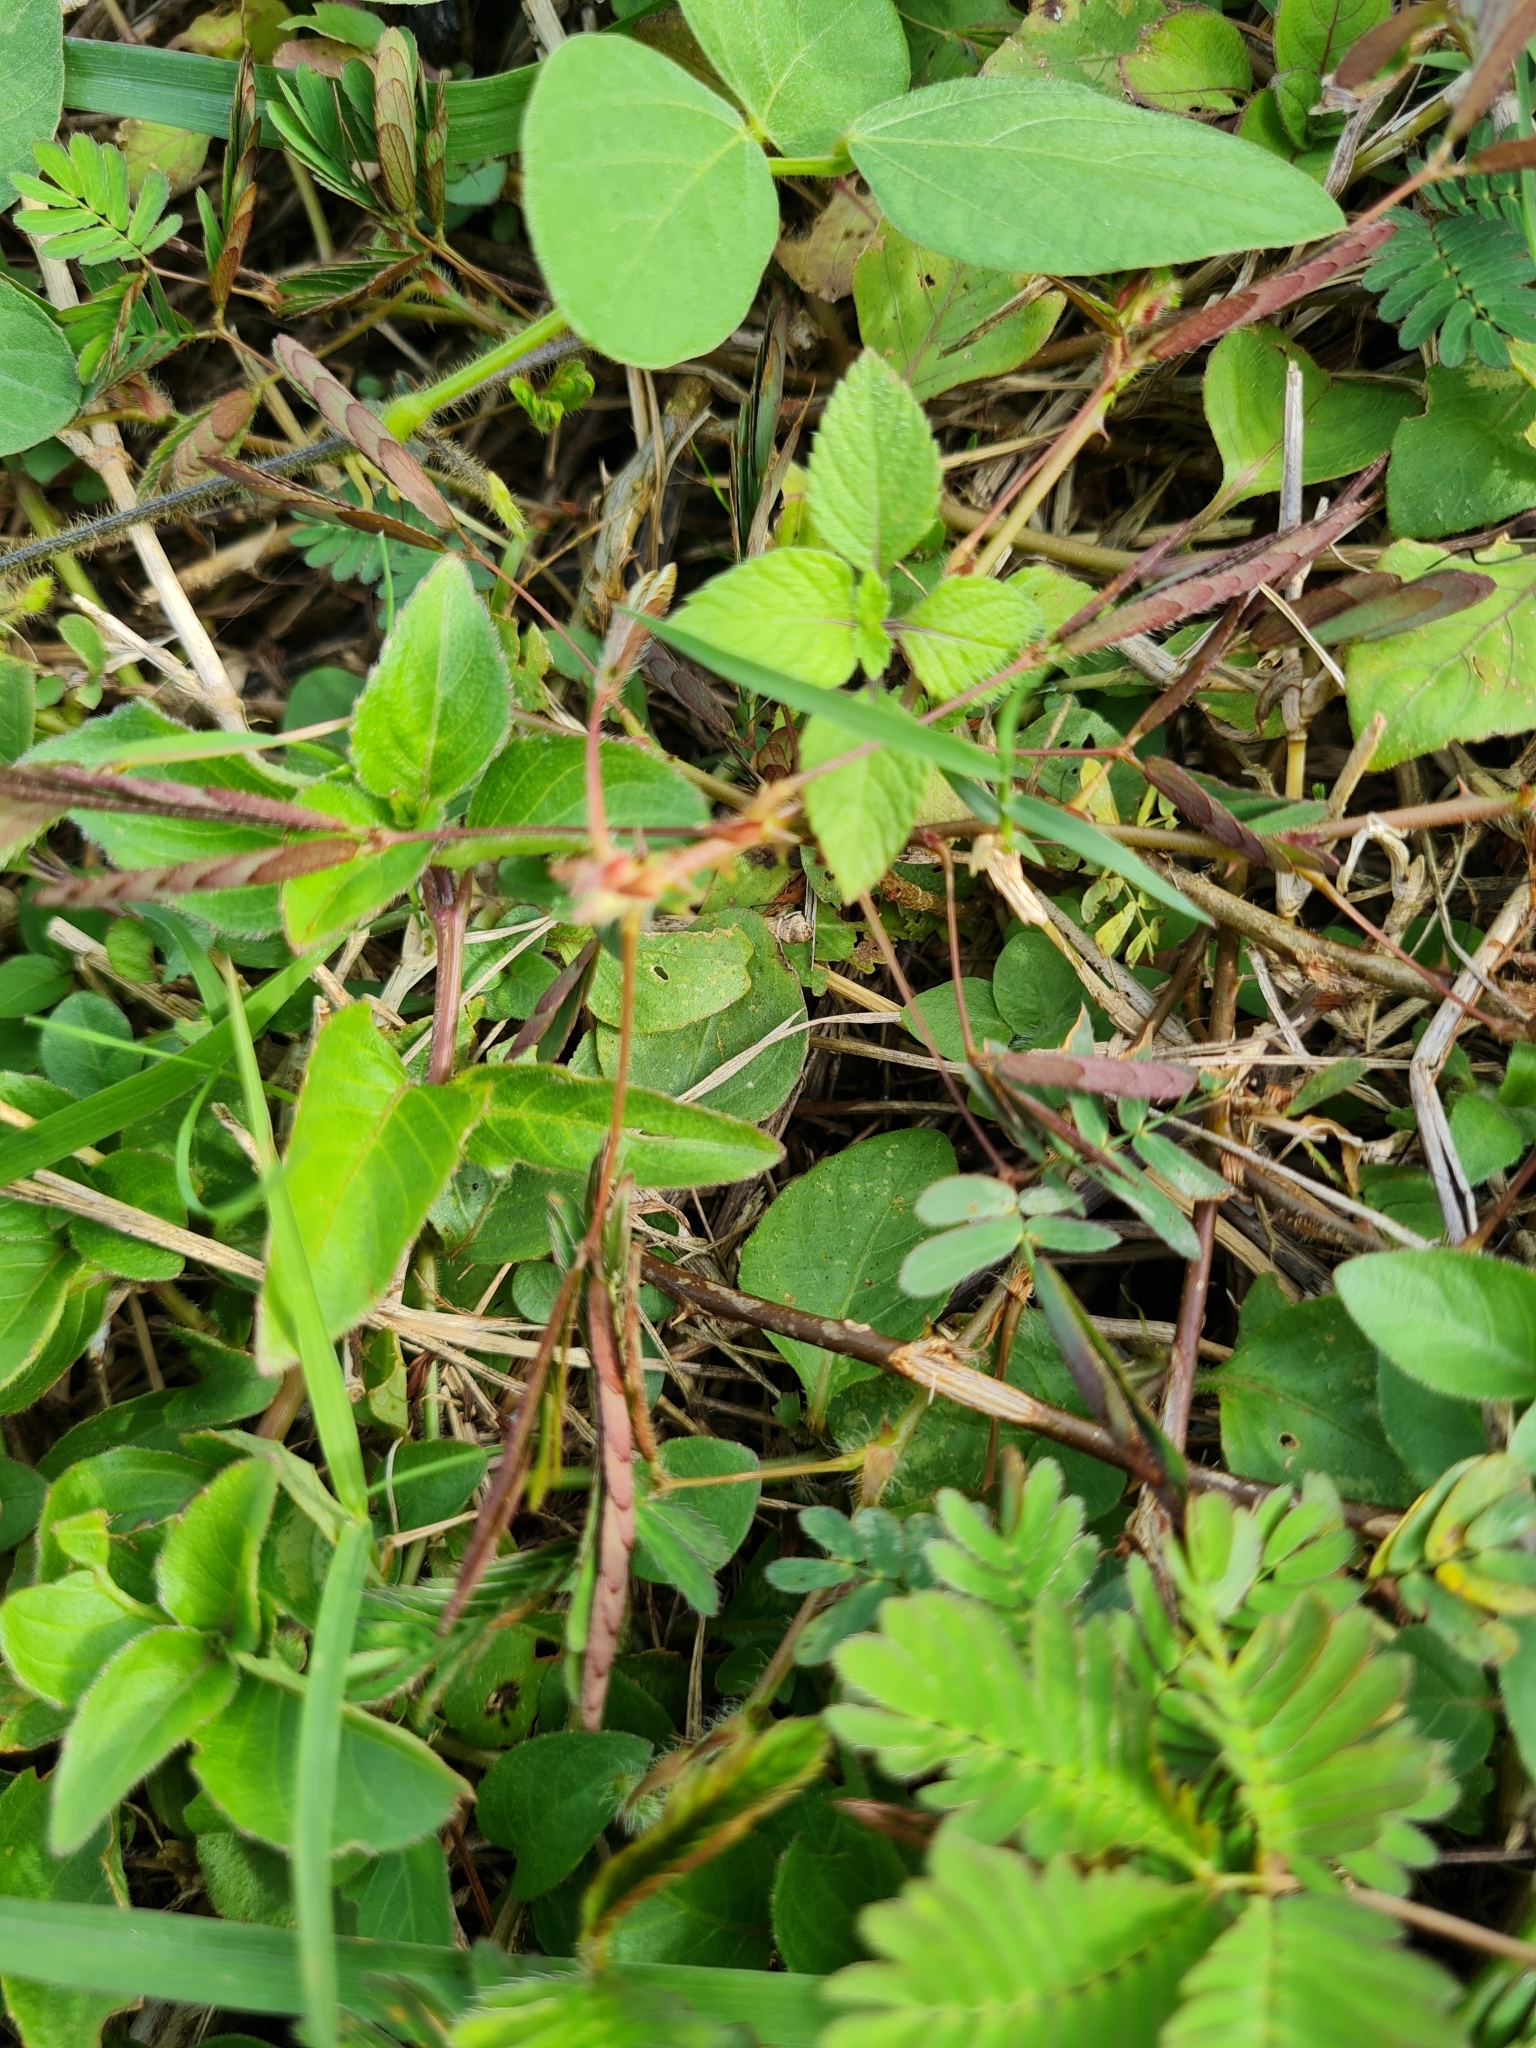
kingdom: Plantae
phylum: Tracheophyta
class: Magnoliopsida
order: Fabales
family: Fabaceae
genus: Mimosa
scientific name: Mimosa pudica
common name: Sensitive plant
